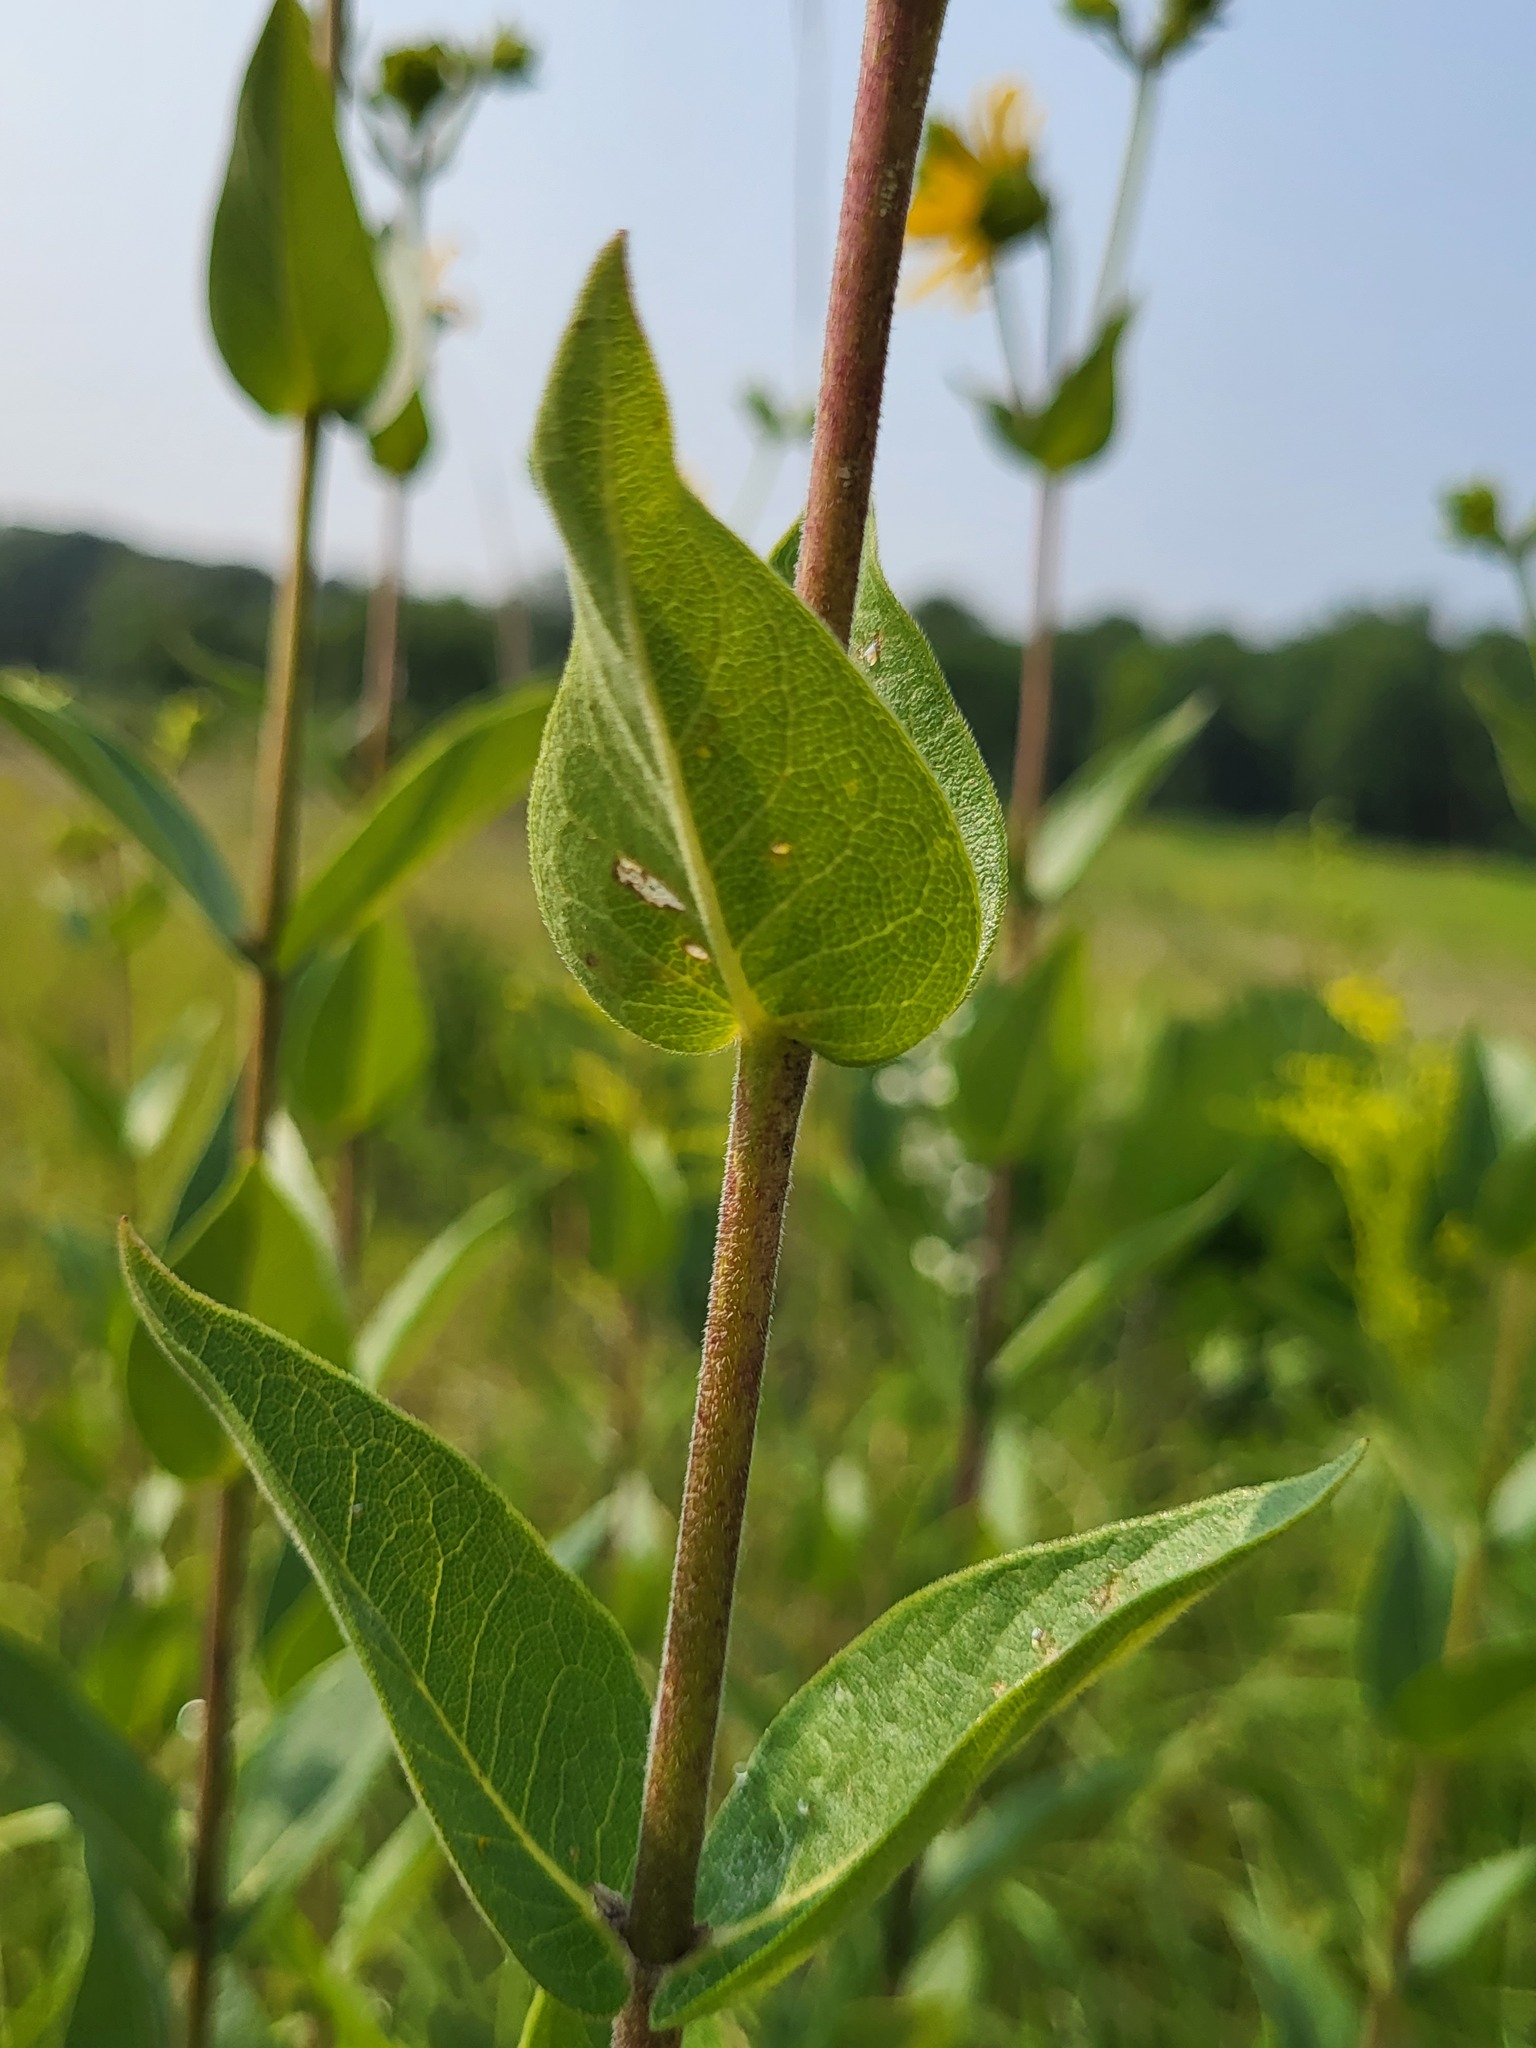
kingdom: Plantae
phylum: Tracheophyta
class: Magnoliopsida
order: Asterales
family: Asteraceae
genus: Silphium
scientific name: Silphium integrifolium
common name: Whole-leaf rosinweed
